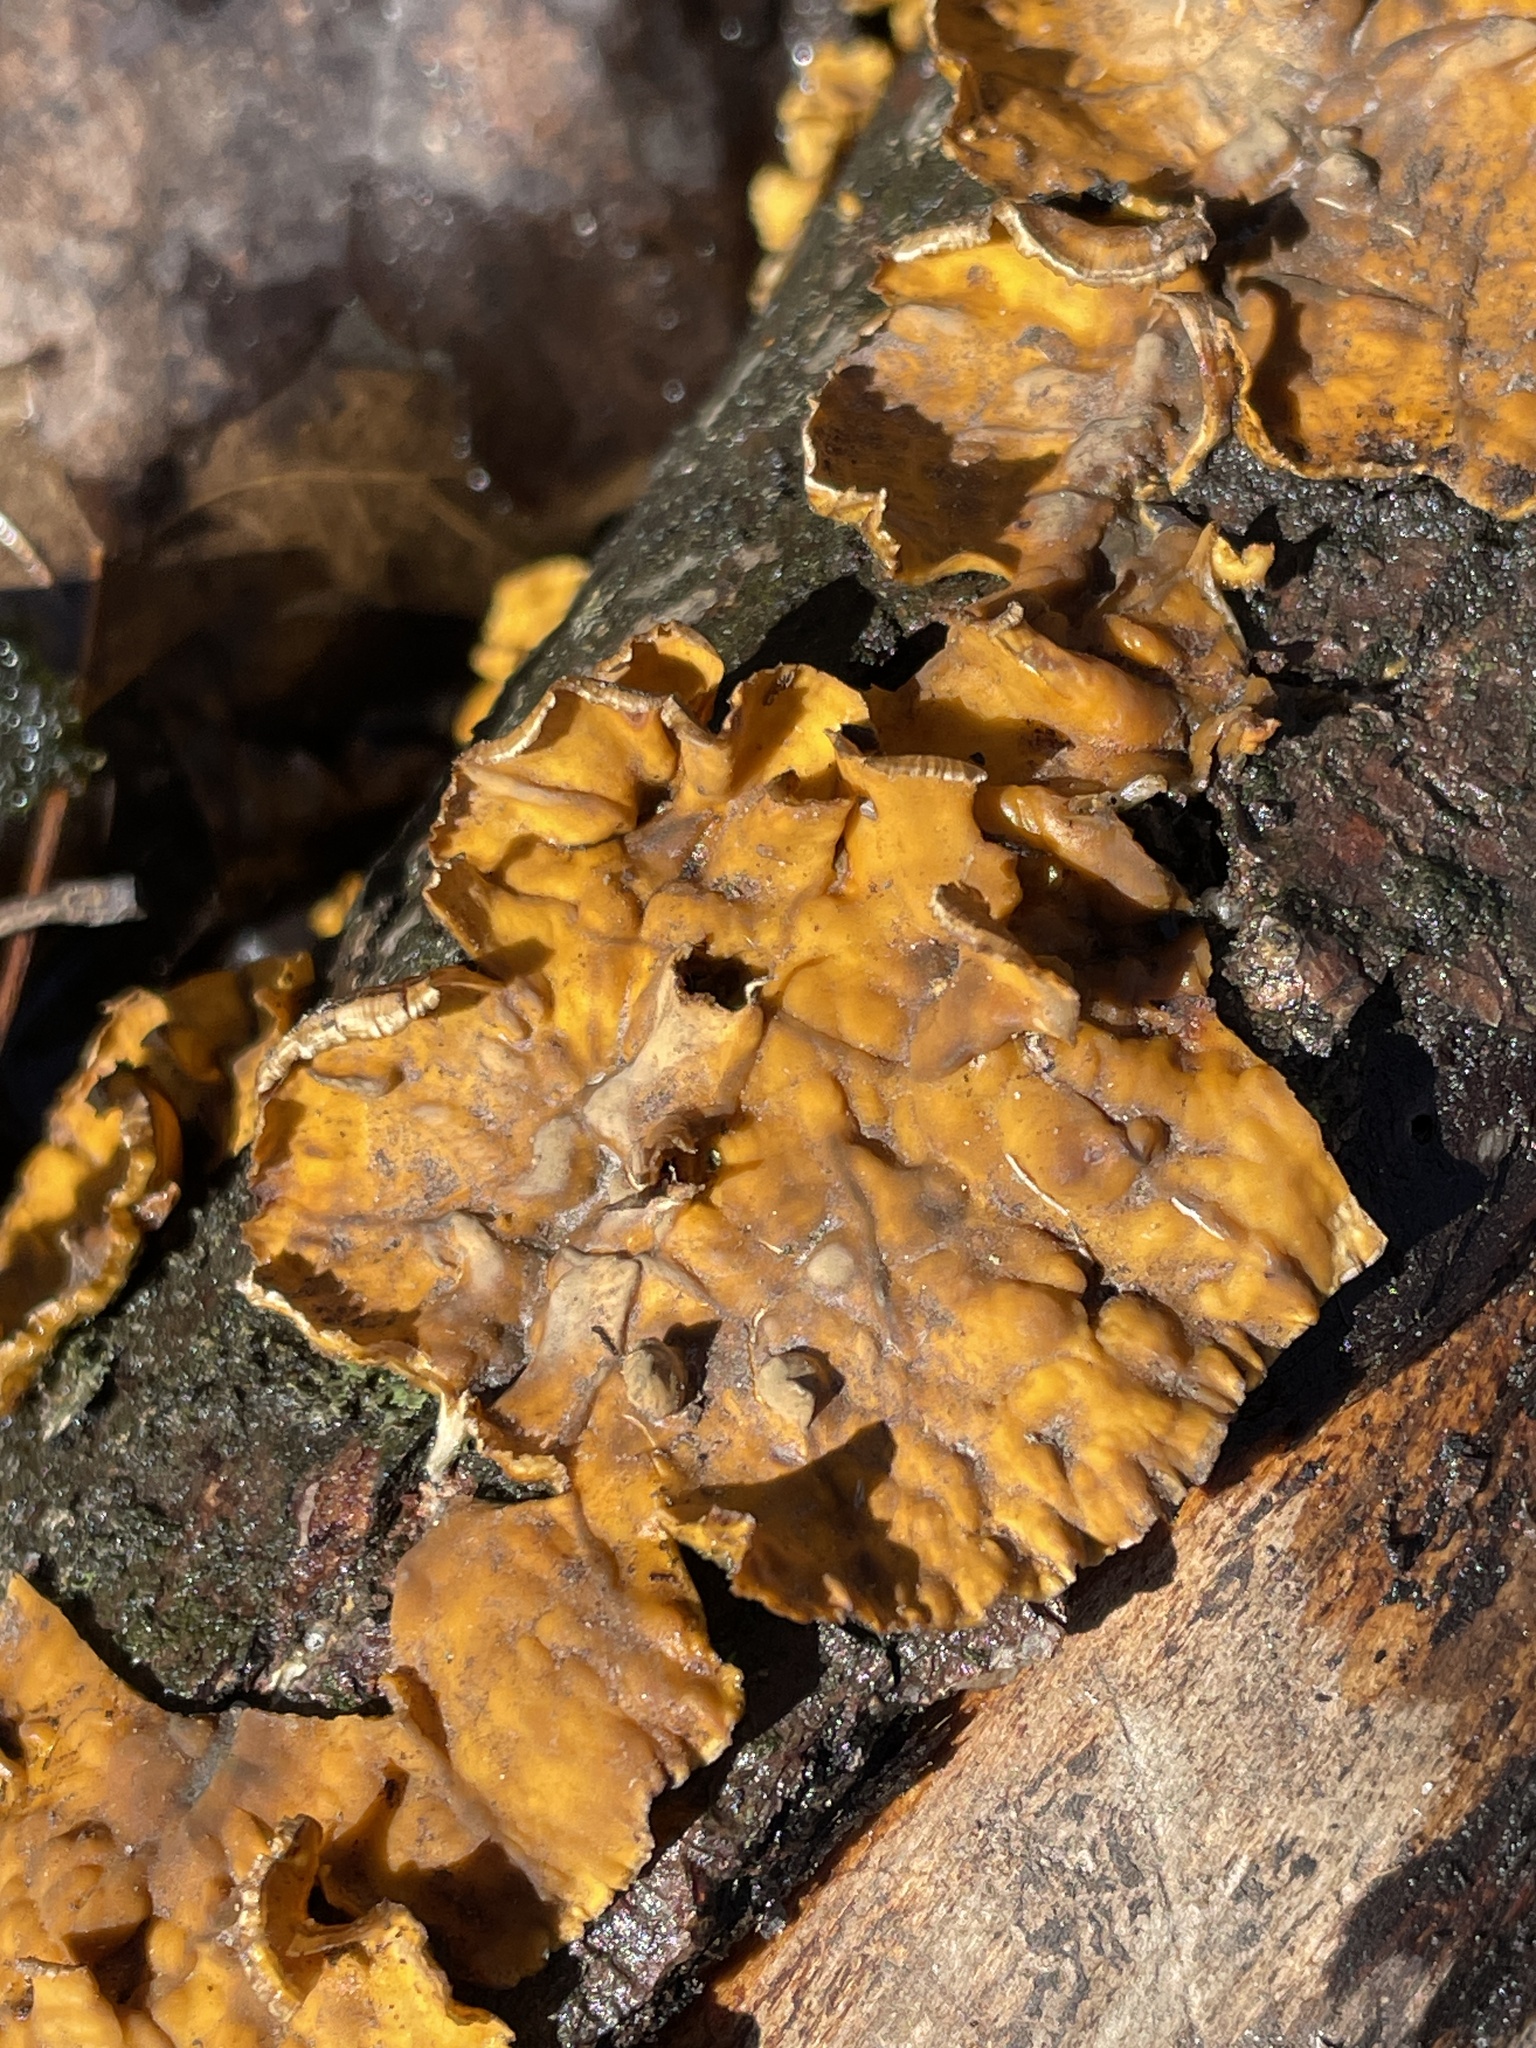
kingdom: Fungi
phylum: Basidiomycota
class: Agaricomycetes
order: Russulales
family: Stereaceae
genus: Stereum
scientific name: Stereum complicatum
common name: Crowded parchment
